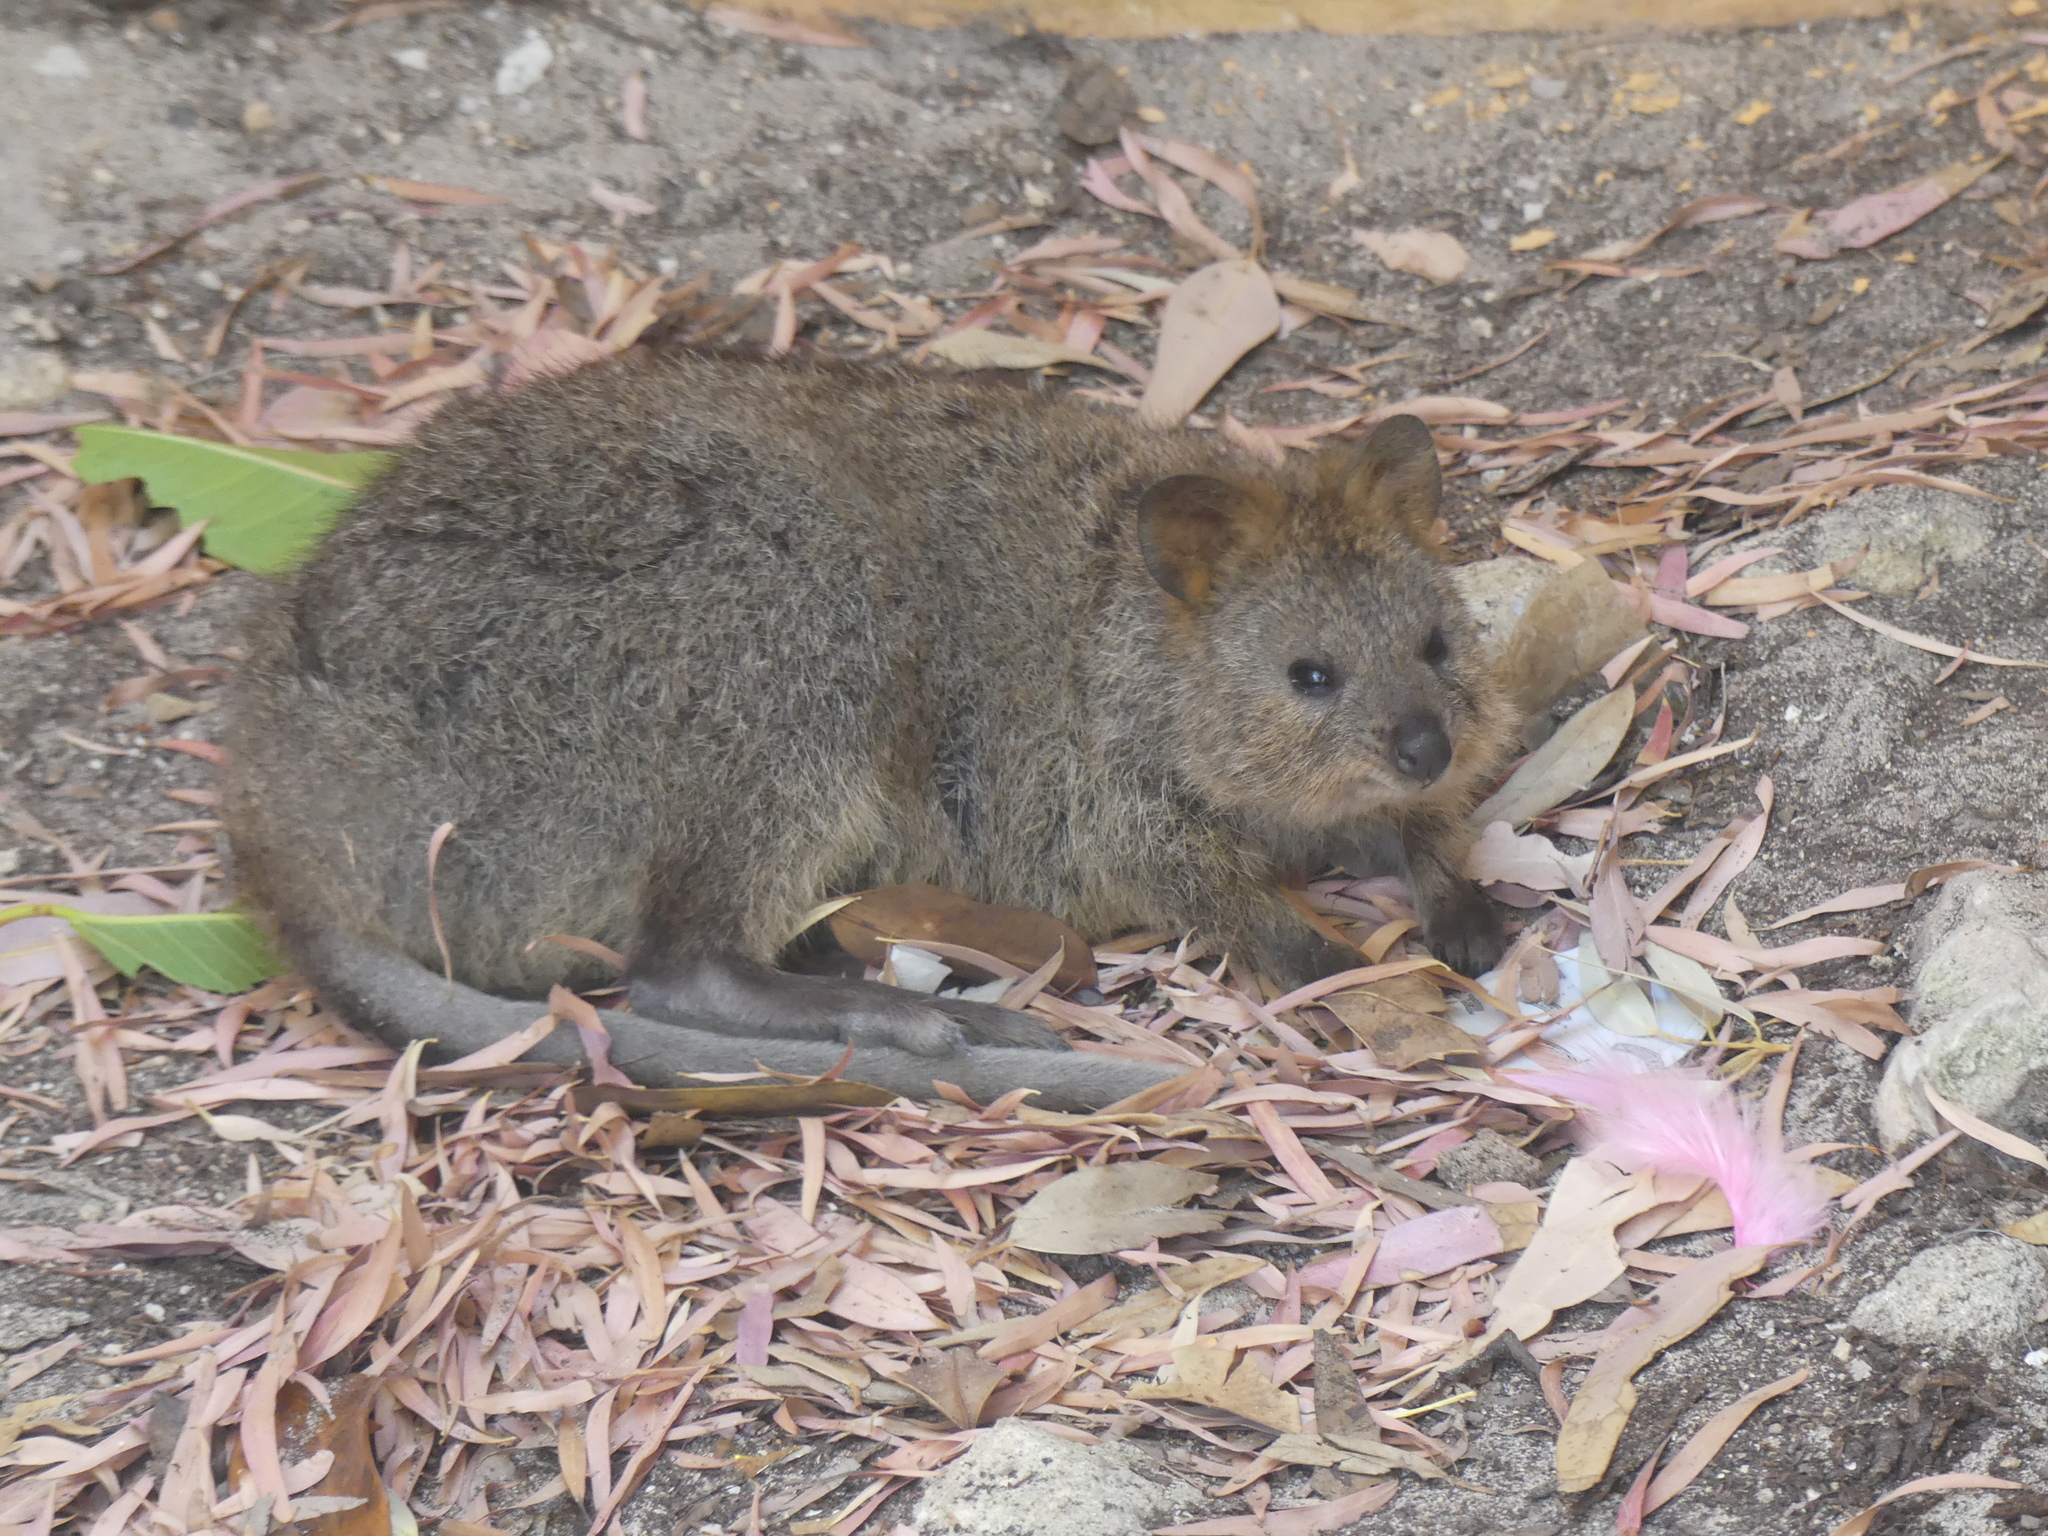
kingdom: Animalia
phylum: Chordata
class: Mammalia
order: Diprotodontia
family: Macropodidae
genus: Setonix
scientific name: Setonix brachyurus
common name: Quokka
